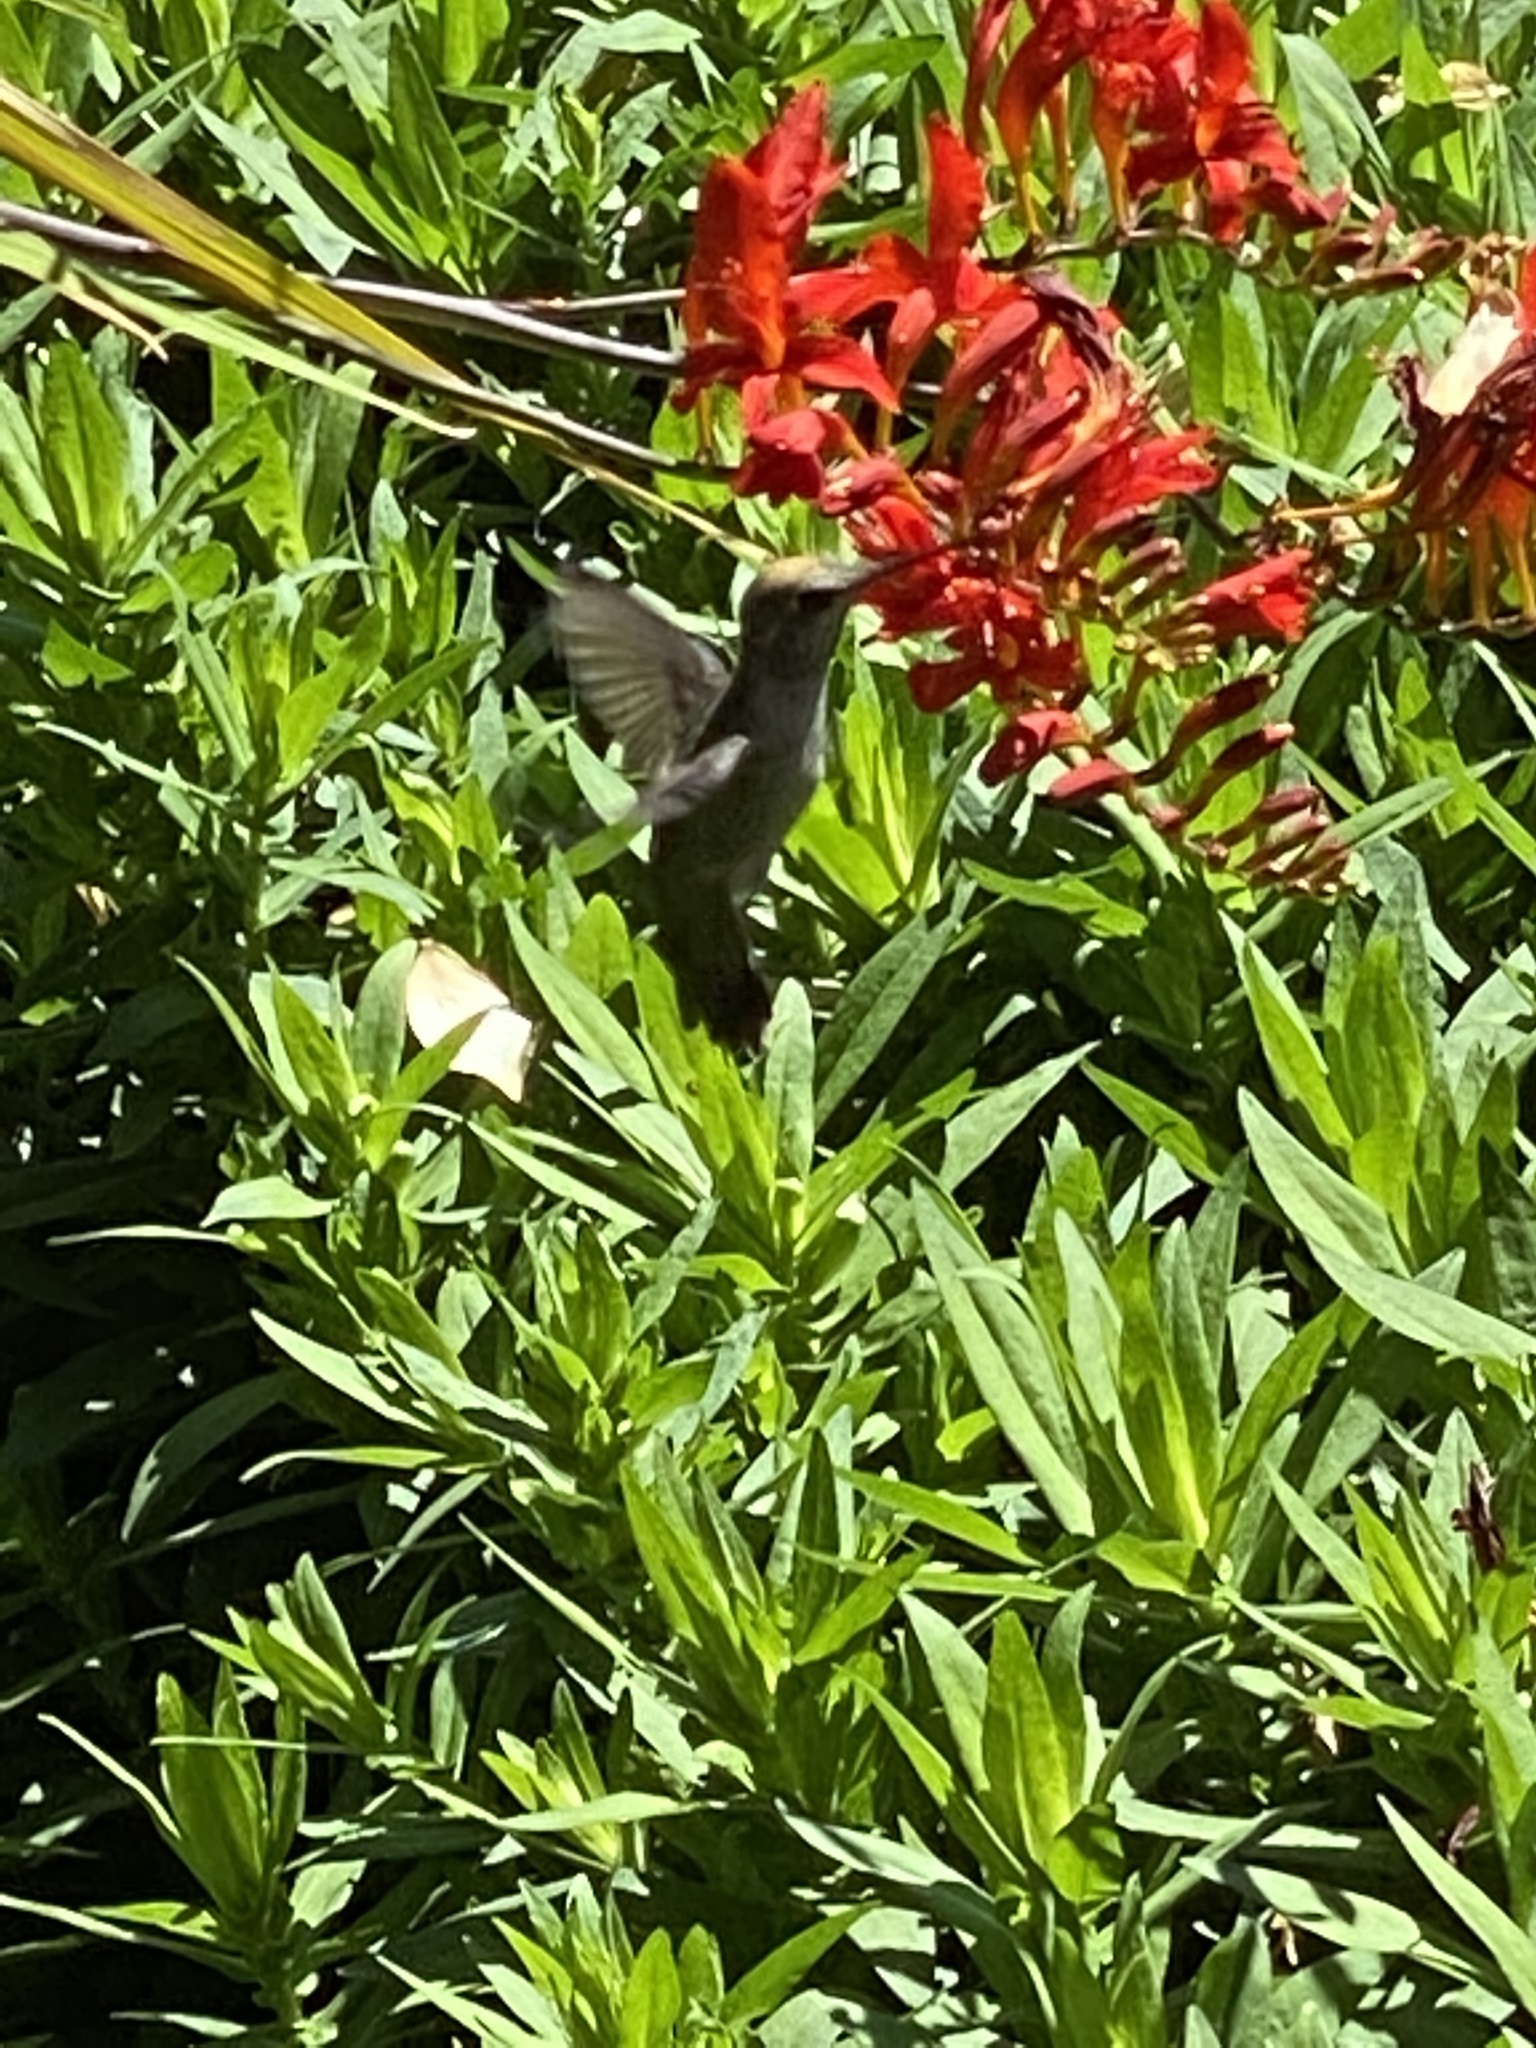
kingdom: Animalia
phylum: Chordata
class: Aves
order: Apodiformes
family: Trochilidae
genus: Calypte
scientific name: Calypte anna
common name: Anna's hummingbird
